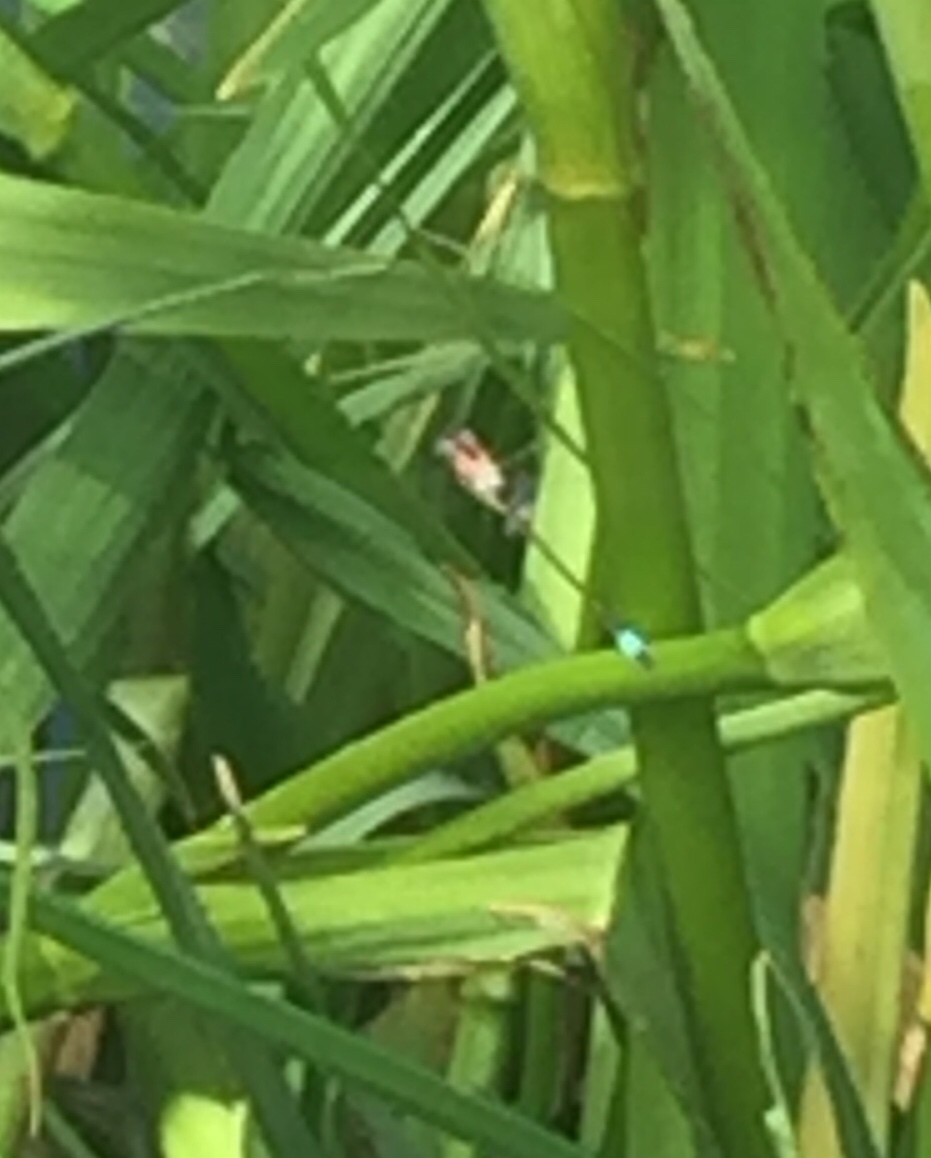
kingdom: Animalia
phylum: Arthropoda
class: Insecta
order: Odonata
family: Coenagrionidae
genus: Ischnura
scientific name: Ischnura elegans
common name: Blue-tailed damselfly
